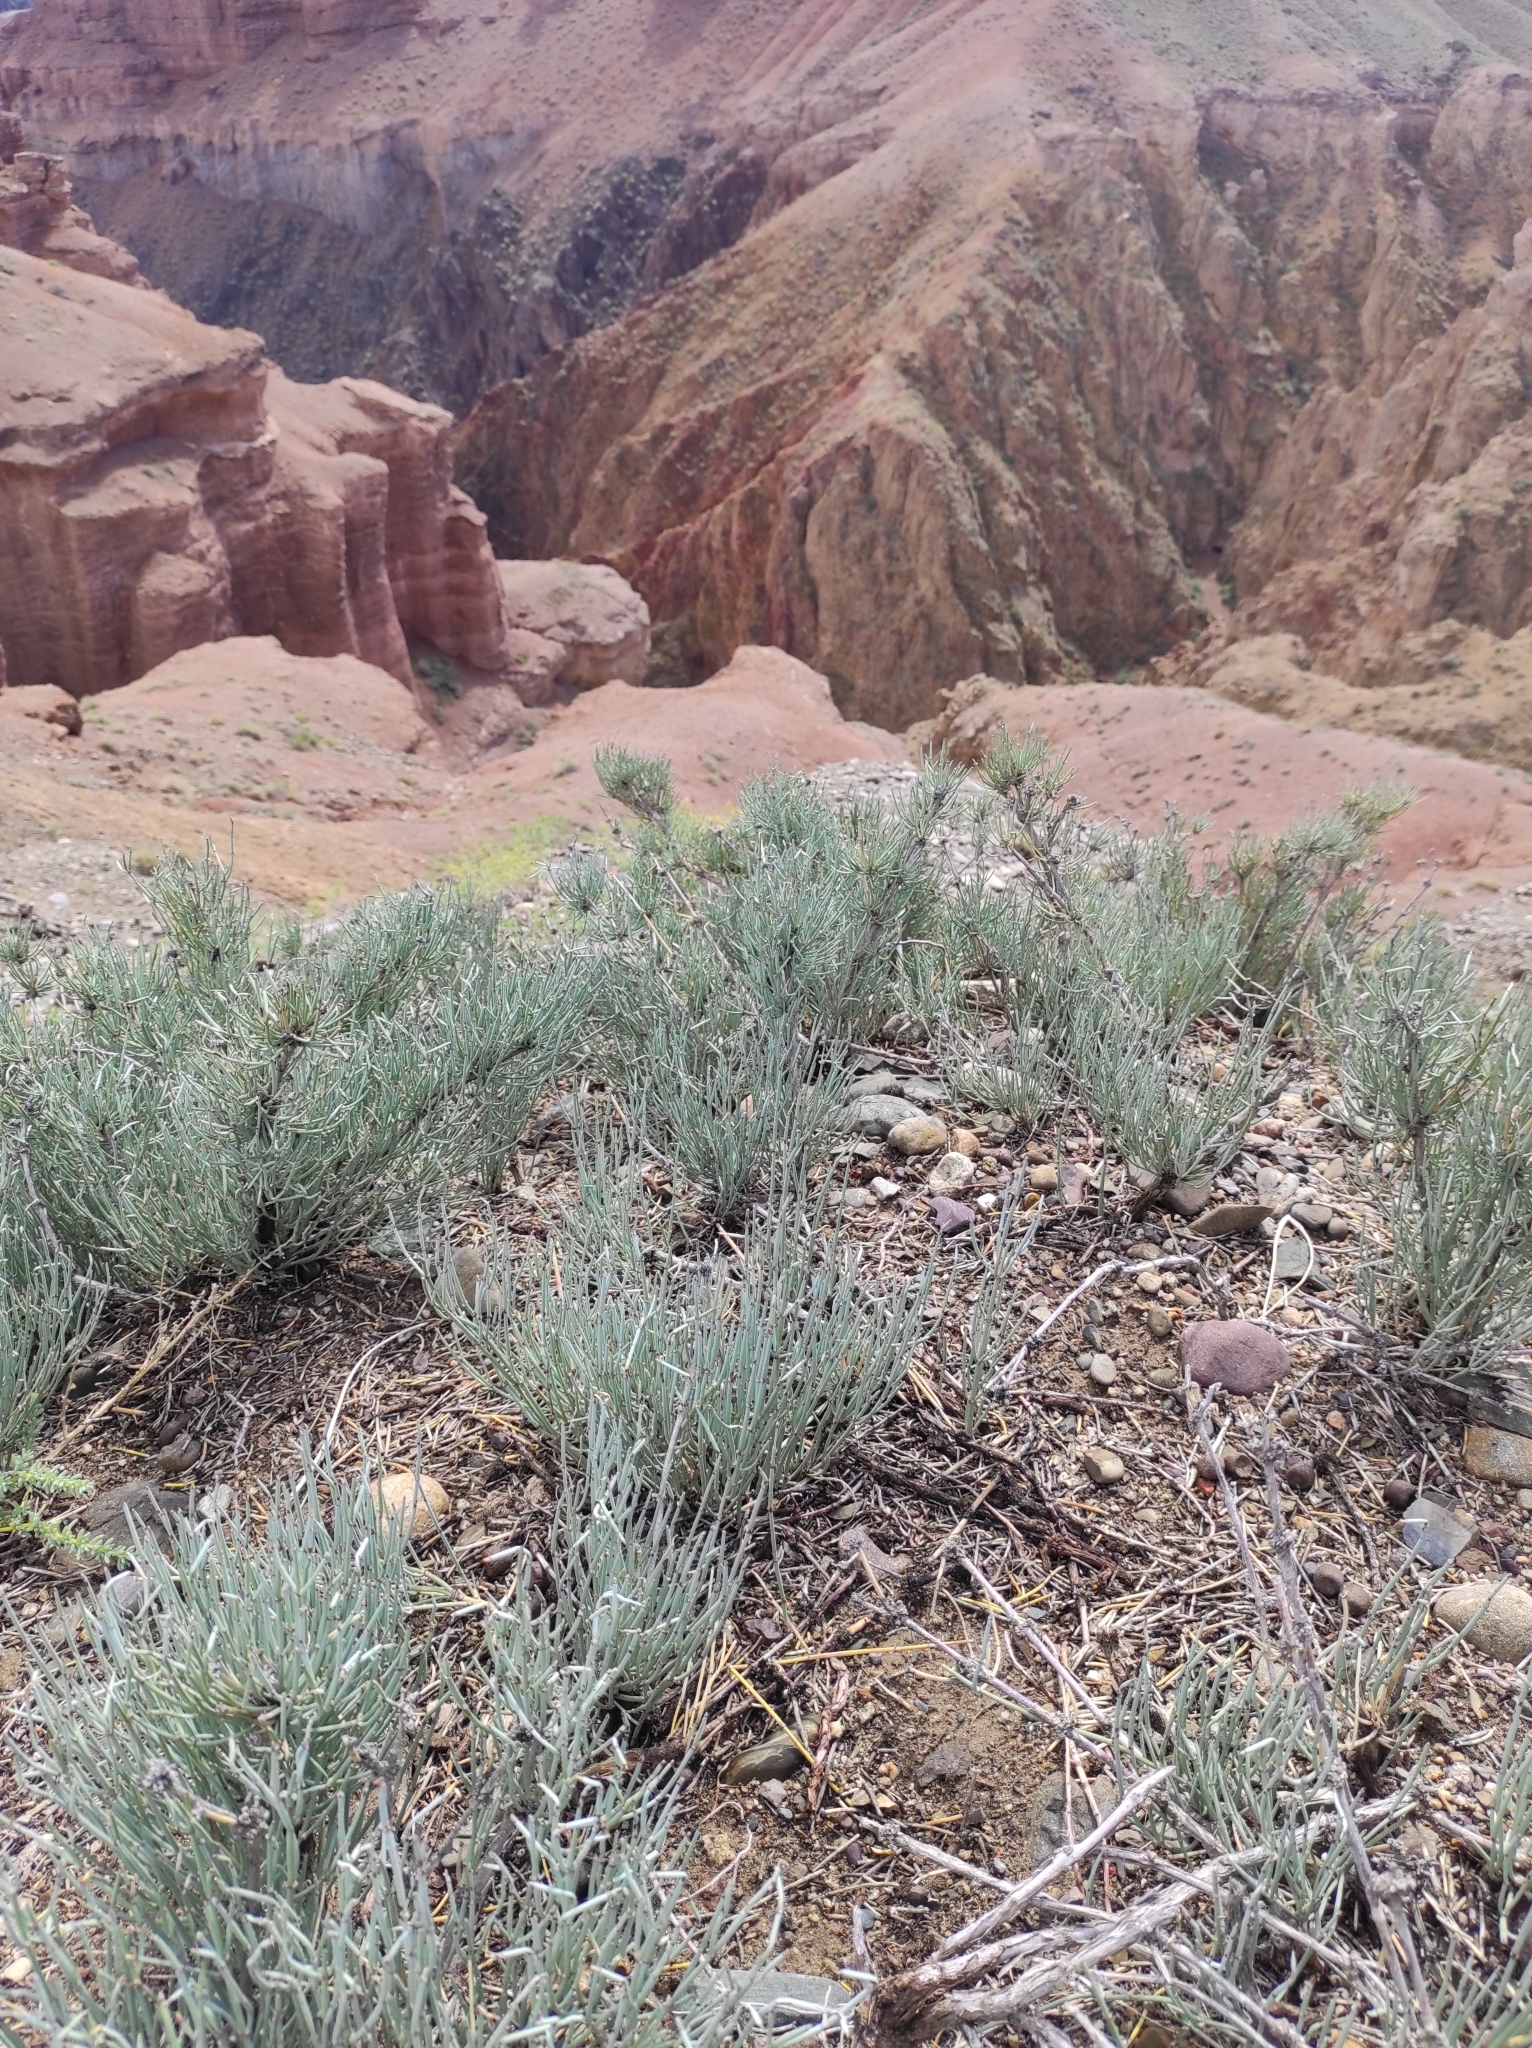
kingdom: Plantae
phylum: Tracheophyta
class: Gnetopsida
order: Ephedrales
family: Ephedraceae
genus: Ephedra
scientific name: Ephedra intermedia
